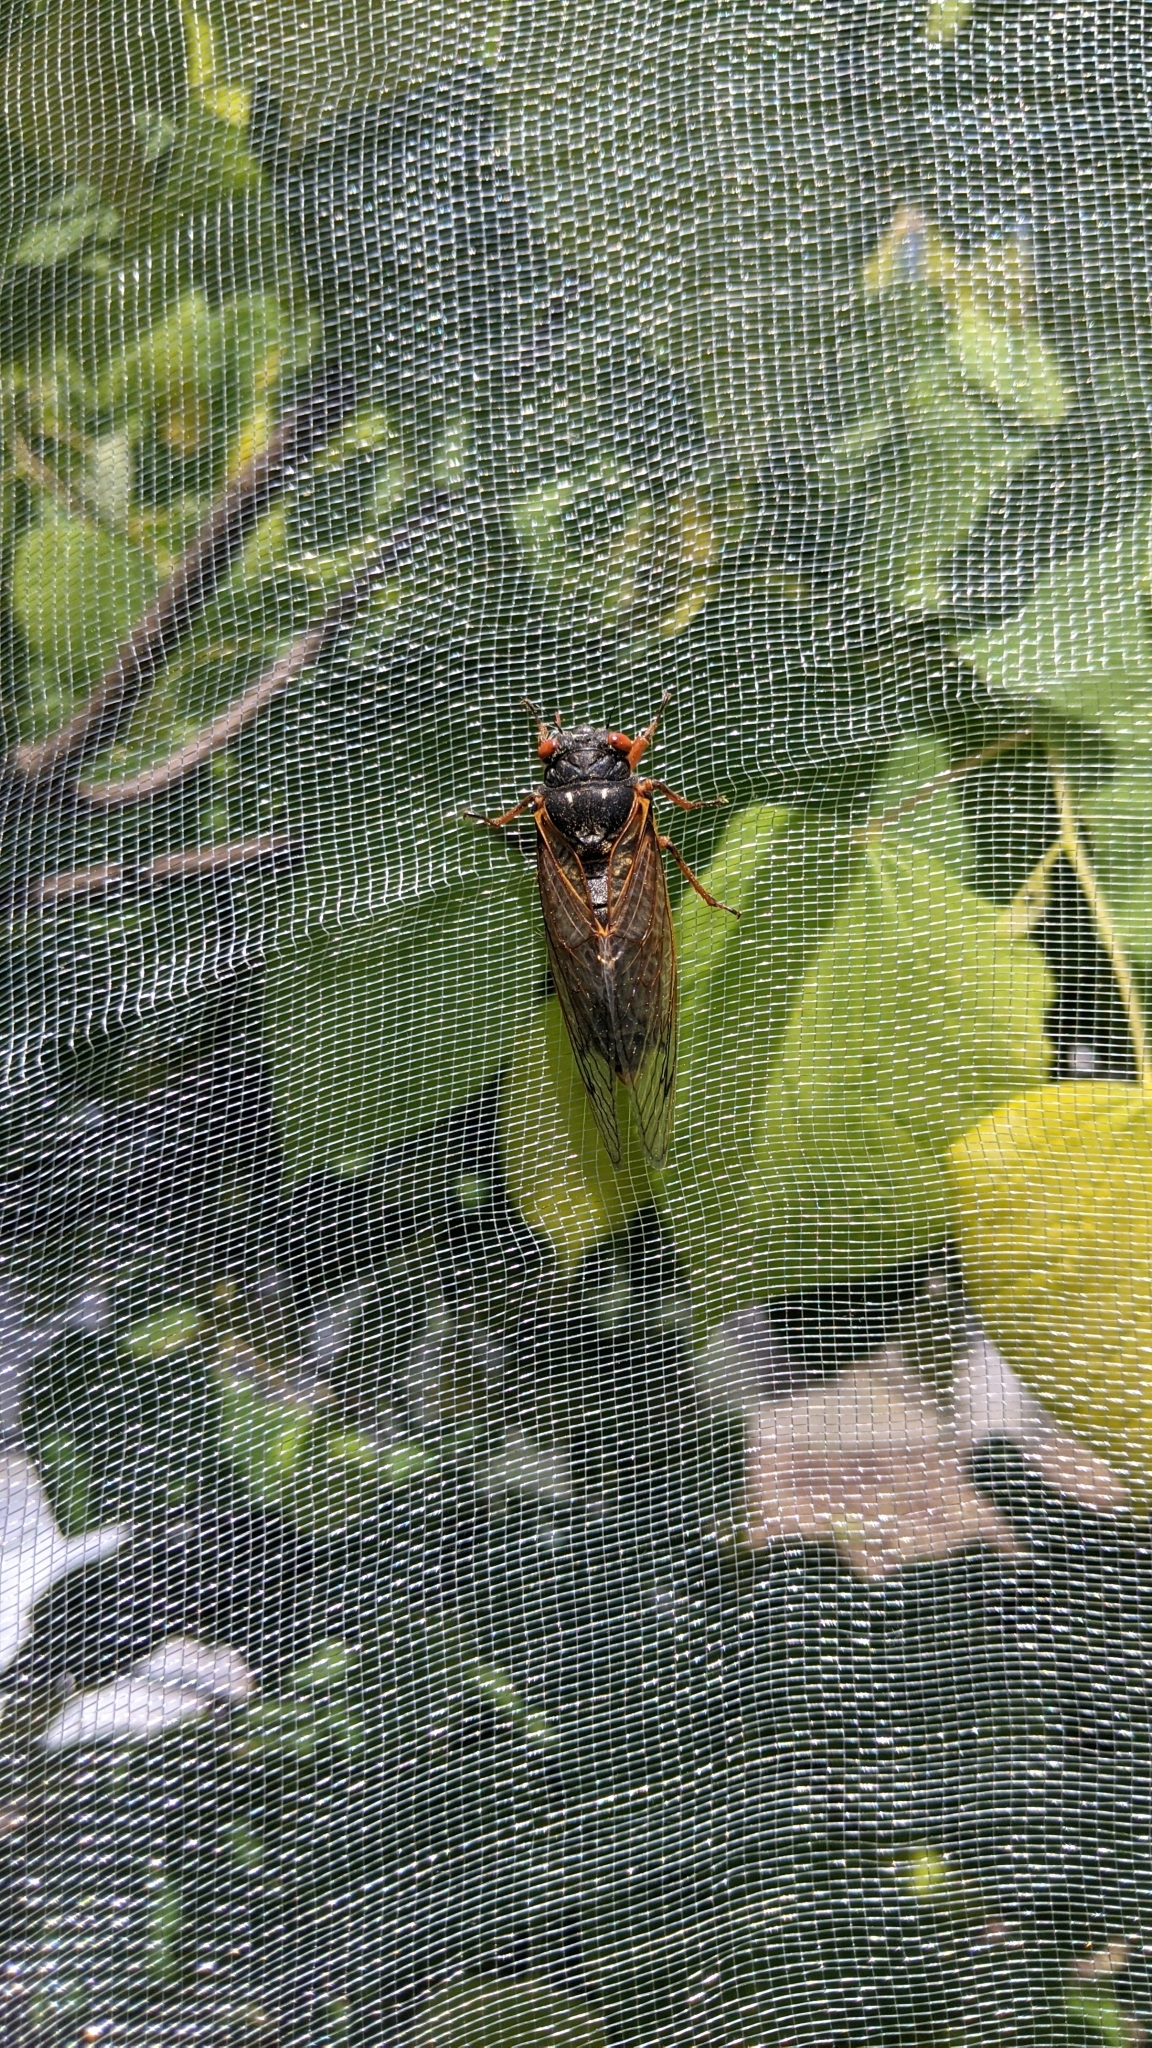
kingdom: Animalia
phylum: Arthropoda
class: Insecta
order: Hemiptera
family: Cicadidae
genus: Magicicada
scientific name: Magicicada
